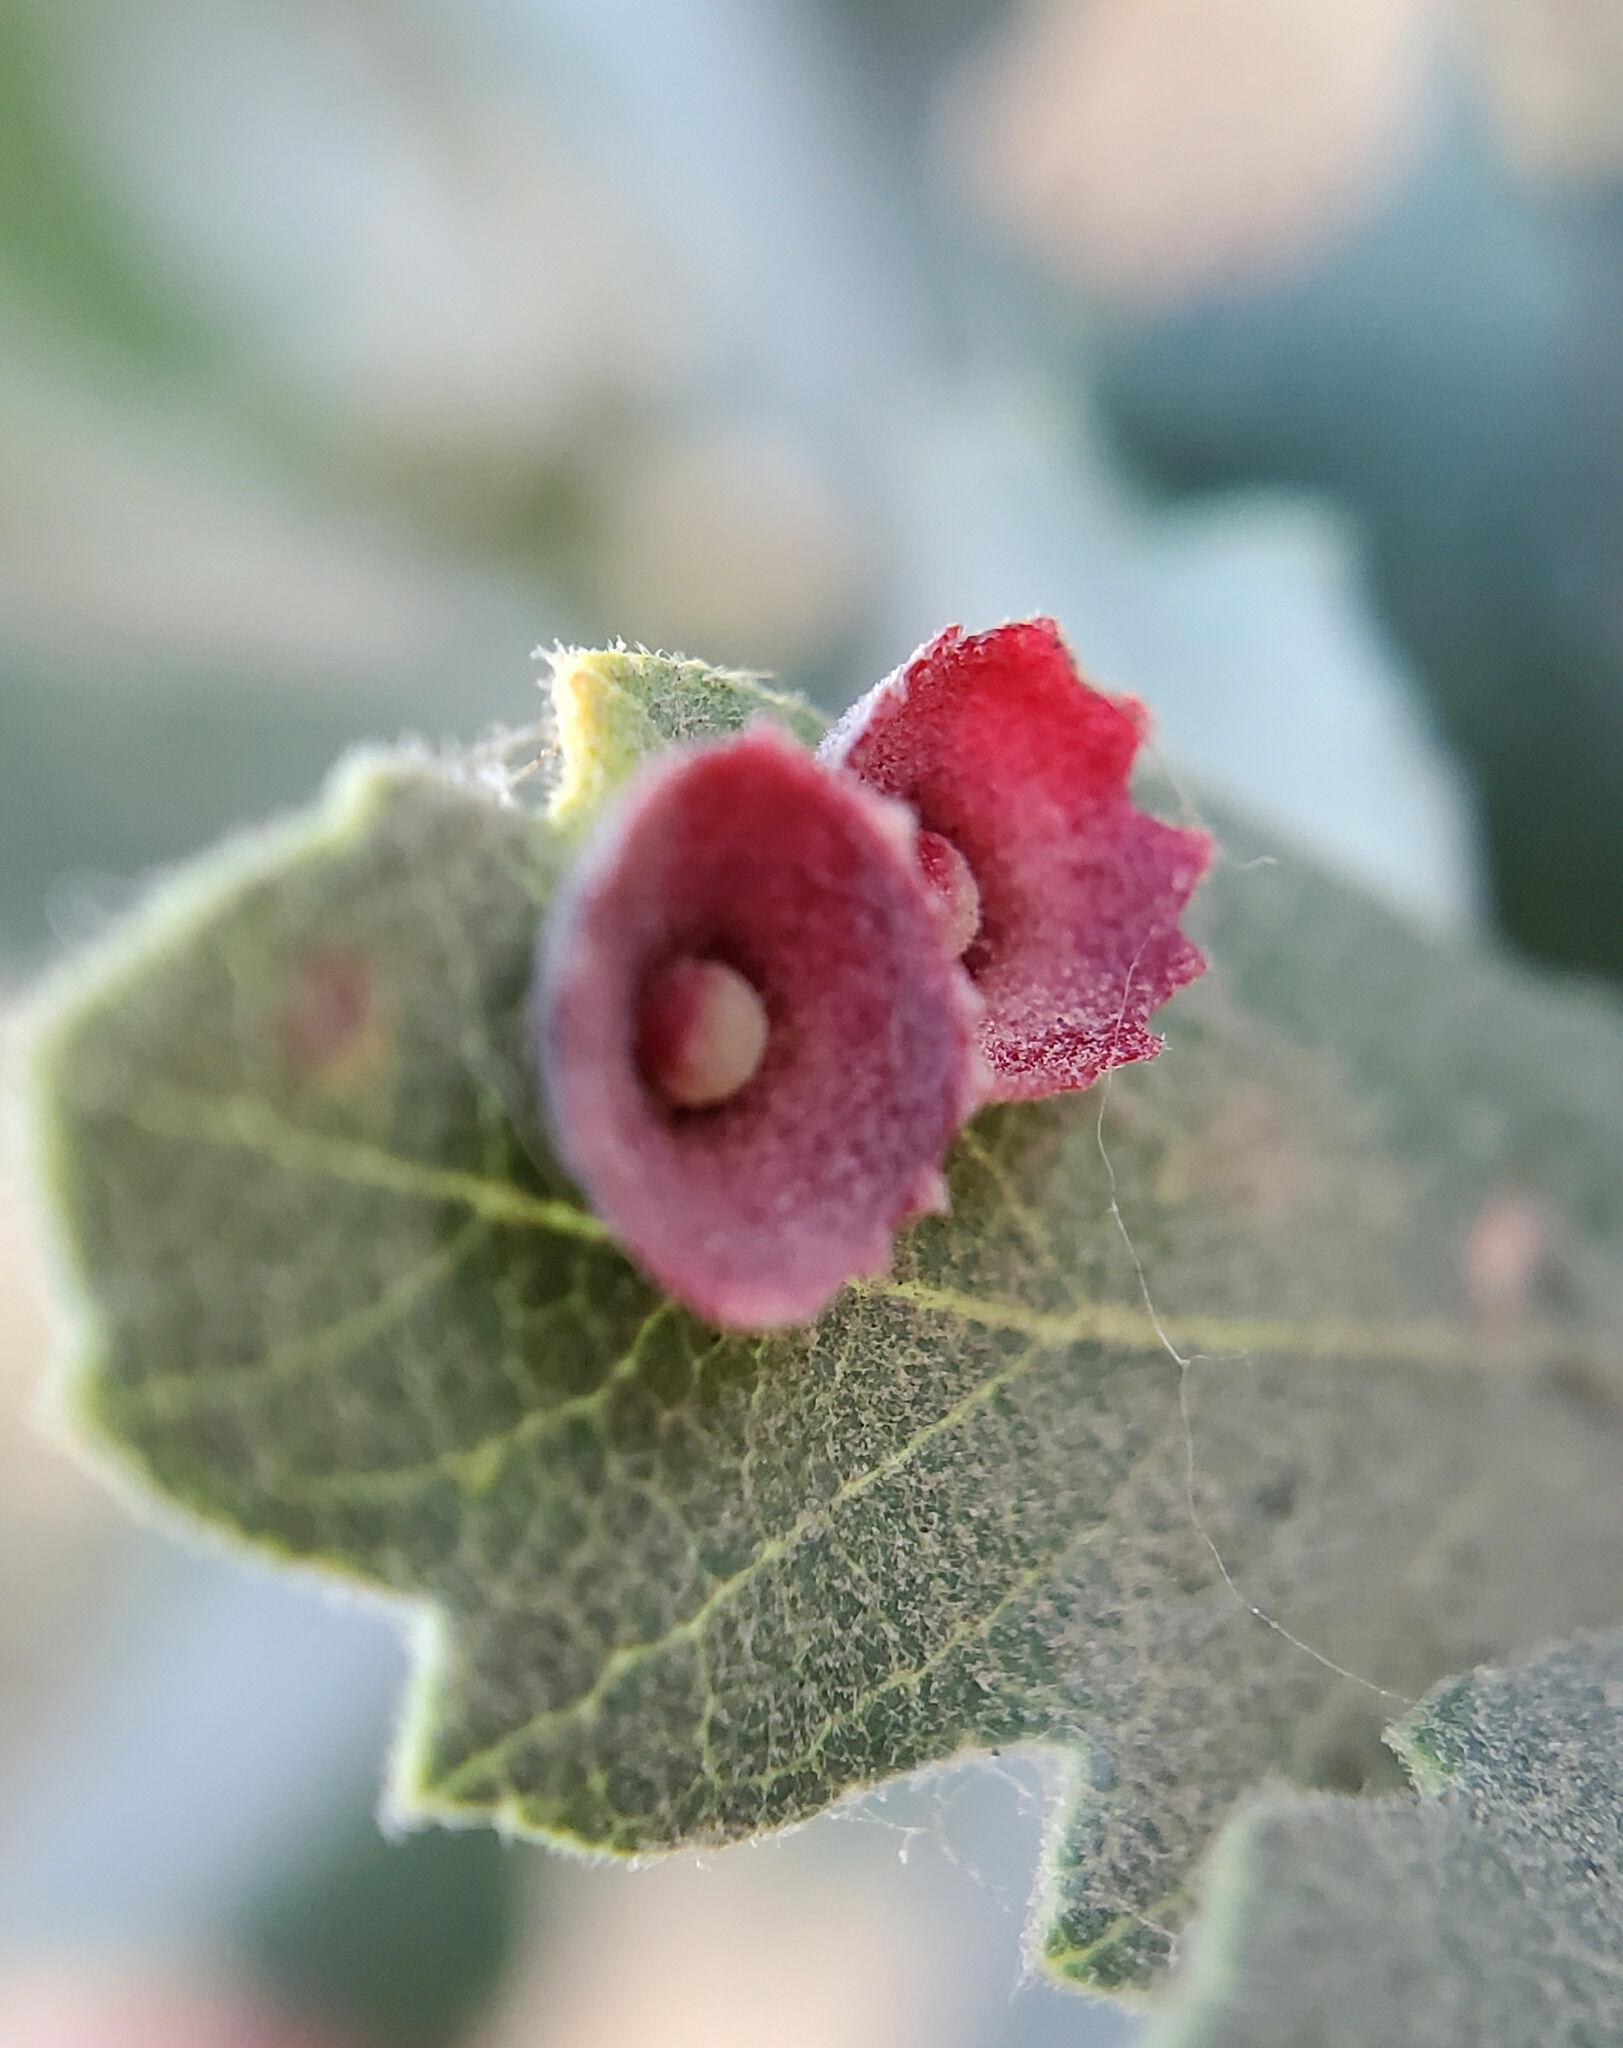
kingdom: Animalia
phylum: Arthropoda
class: Insecta
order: Hymenoptera
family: Cynipidae
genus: Andricus
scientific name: Andricus
